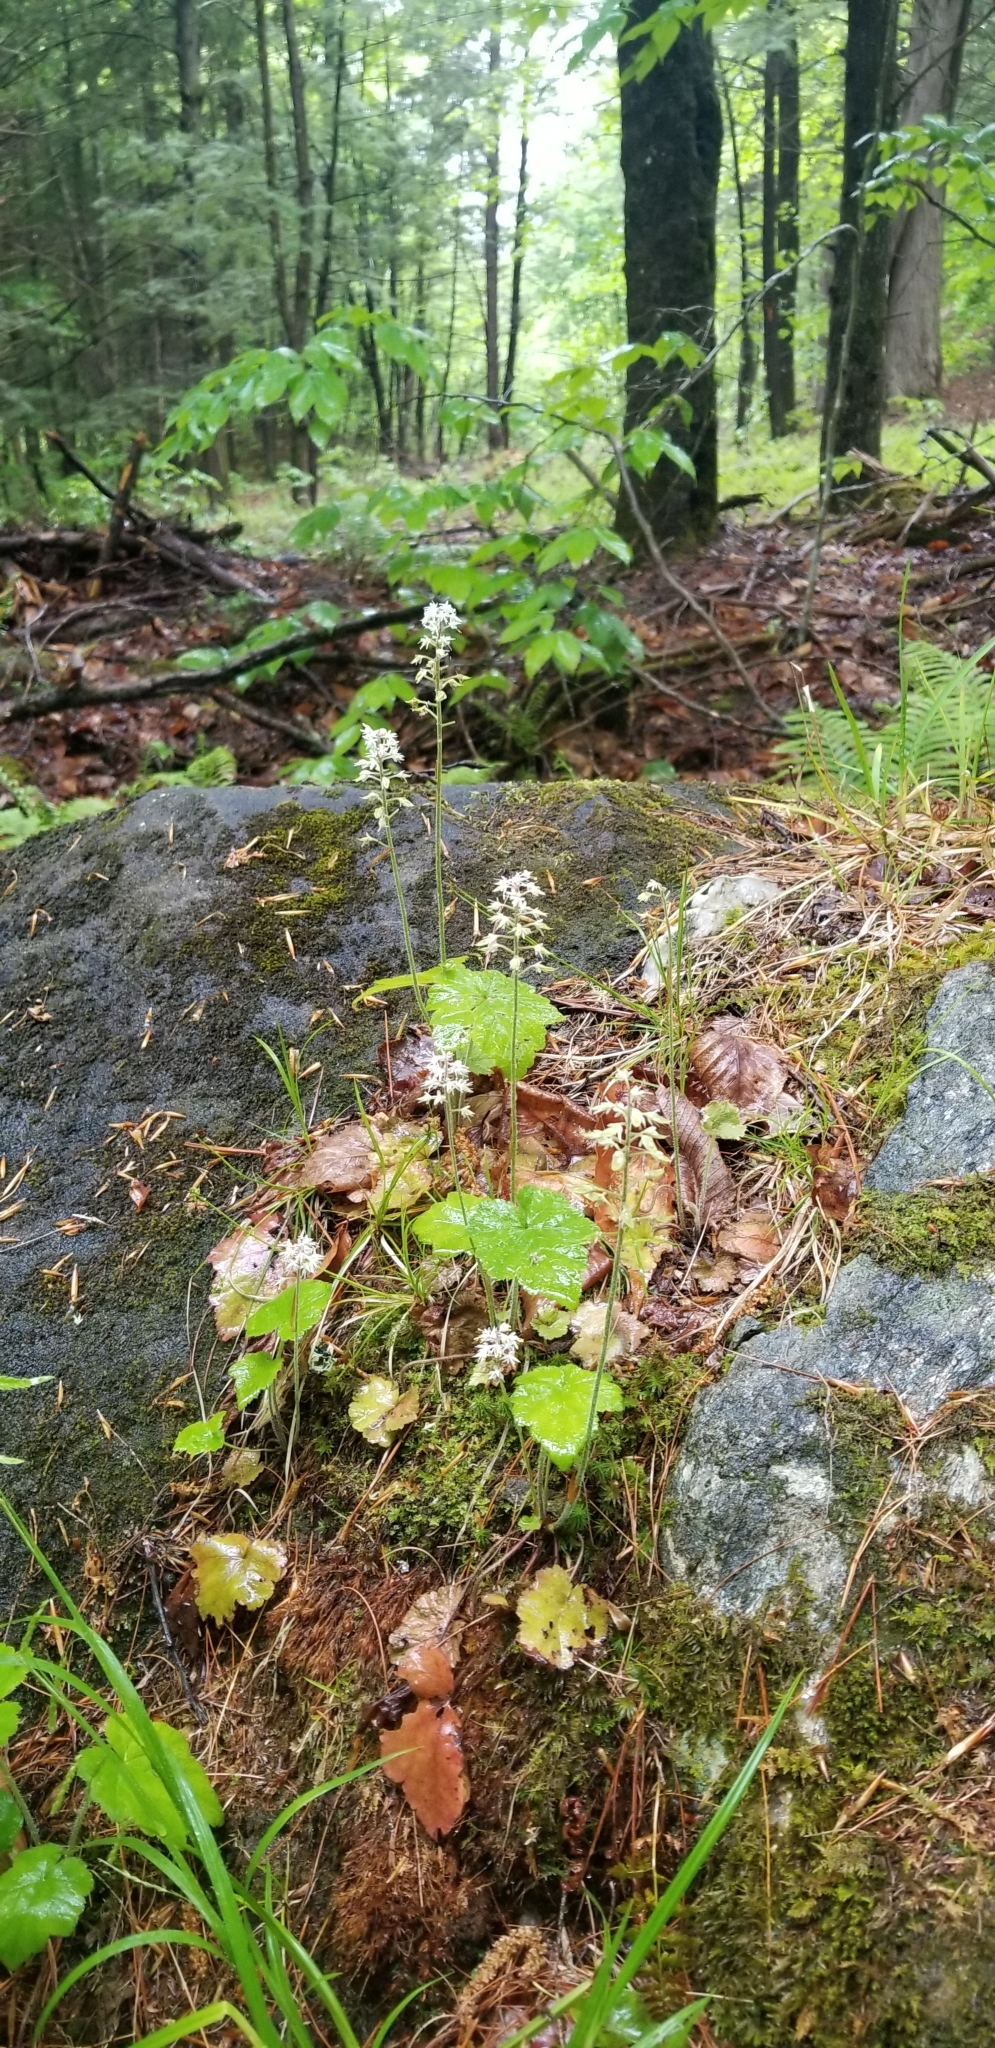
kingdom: Plantae
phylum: Tracheophyta
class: Magnoliopsida
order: Saxifragales
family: Saxifragaceae
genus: Tiarella
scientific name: Tiarella stolonifera
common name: Stoloniferous foamflower
